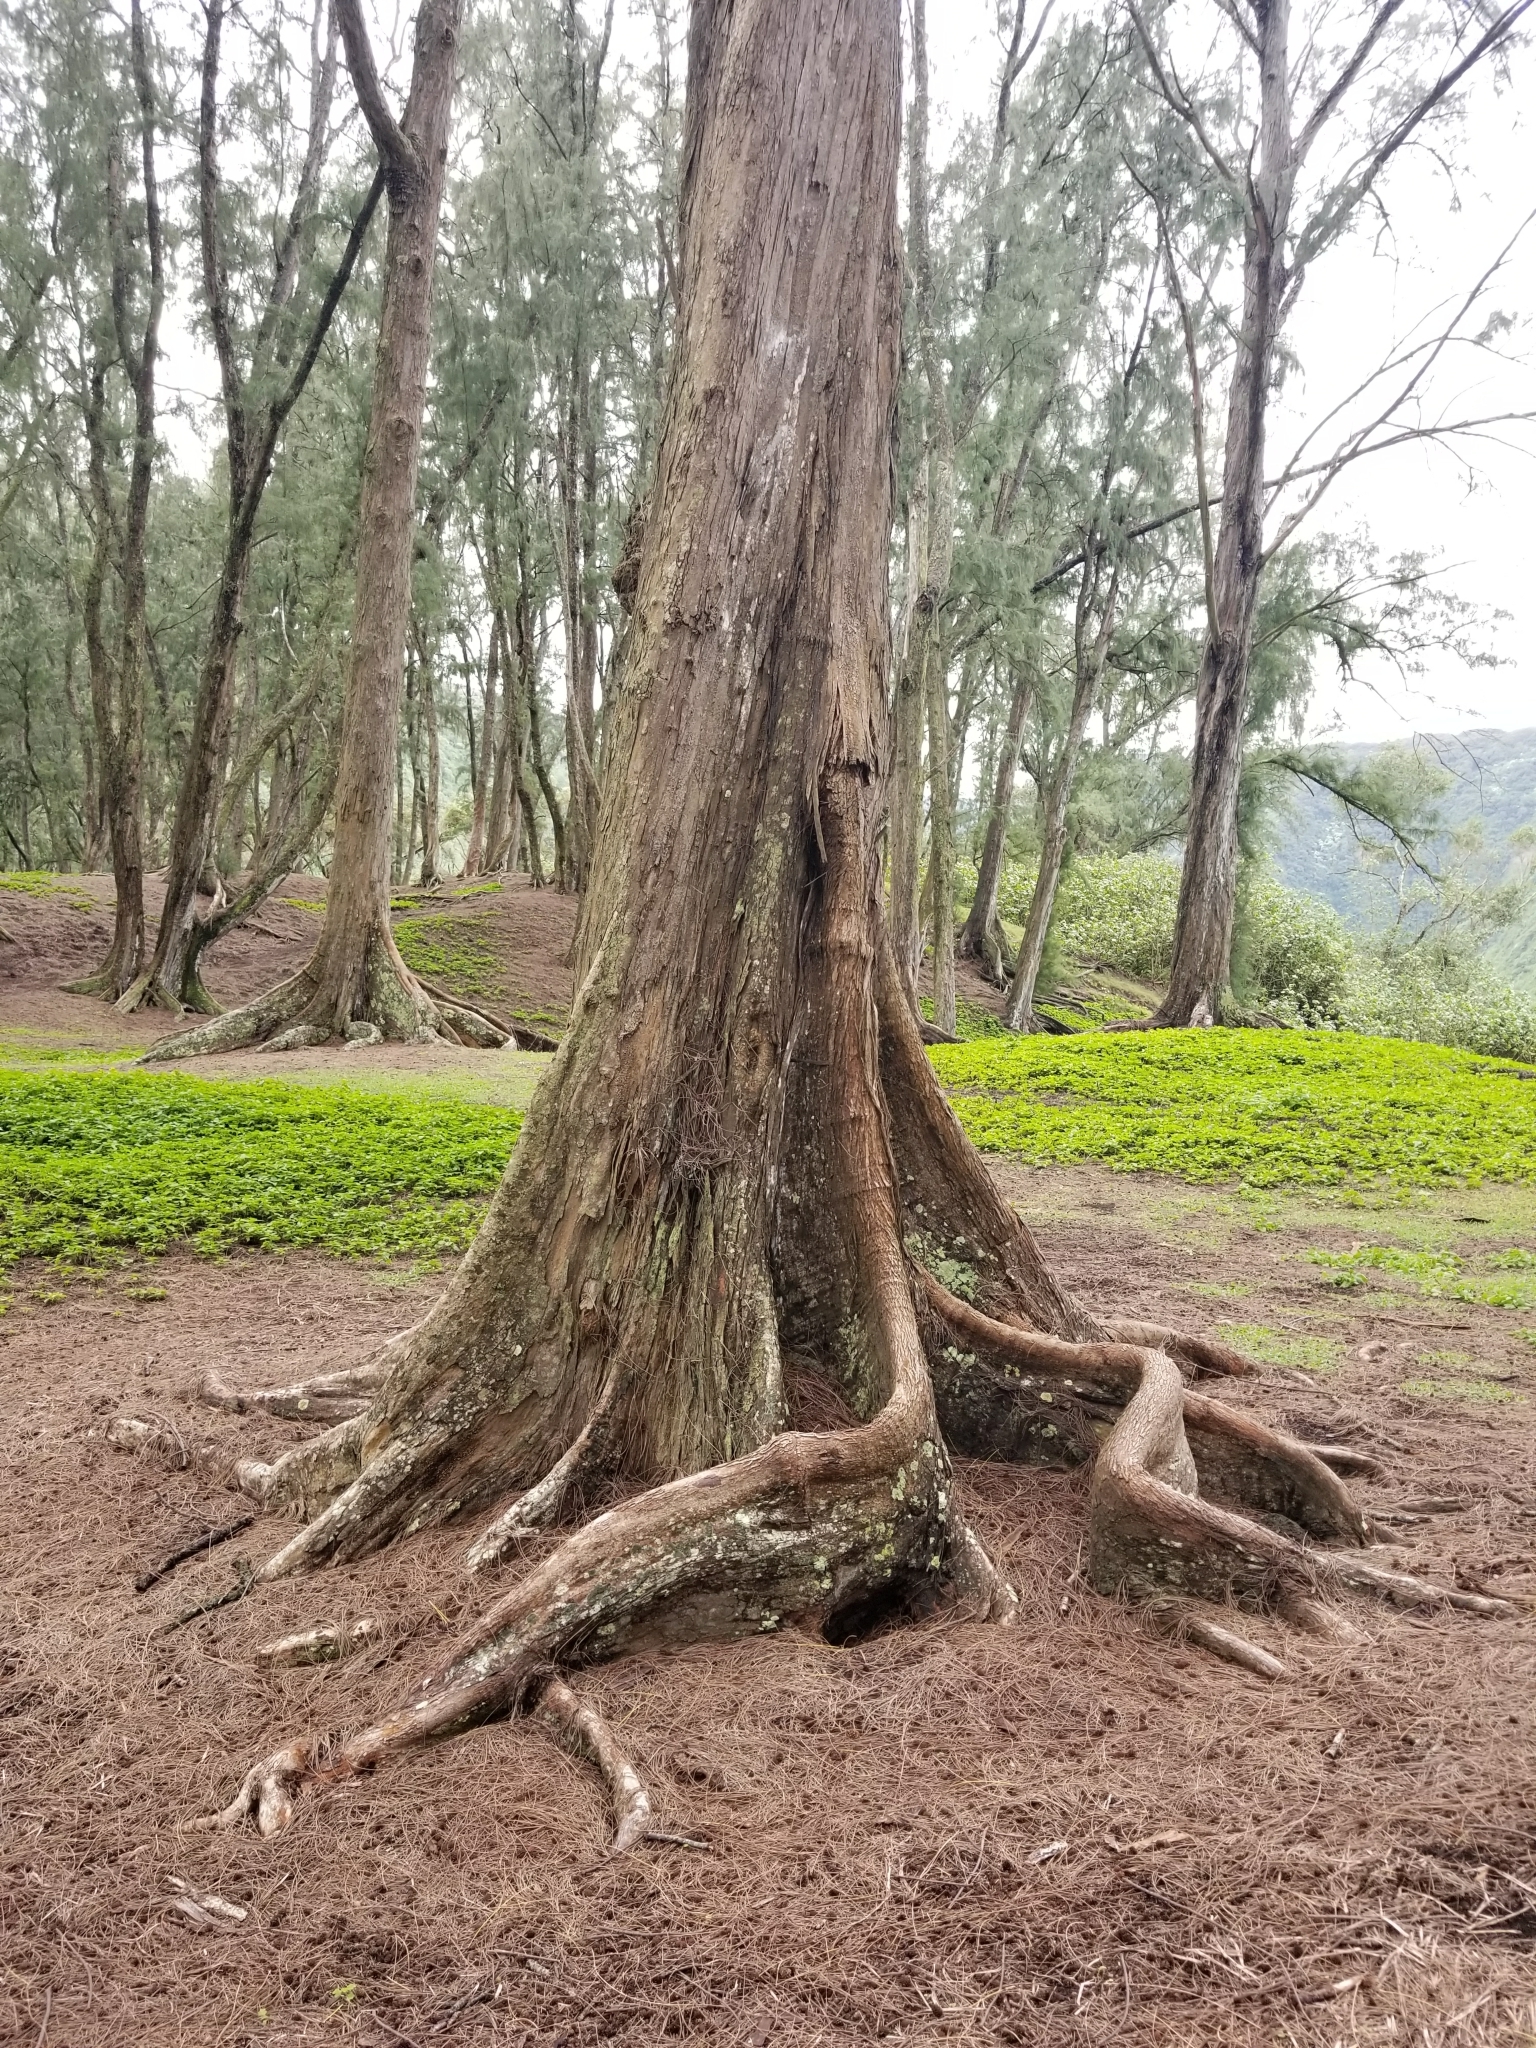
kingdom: Plantae
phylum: Tracheophyta
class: Magnoliopsida
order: Fagales
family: Casuarinaceae
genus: Casuarina
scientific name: Casuarina equisetifolia
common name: Beach sheoak
